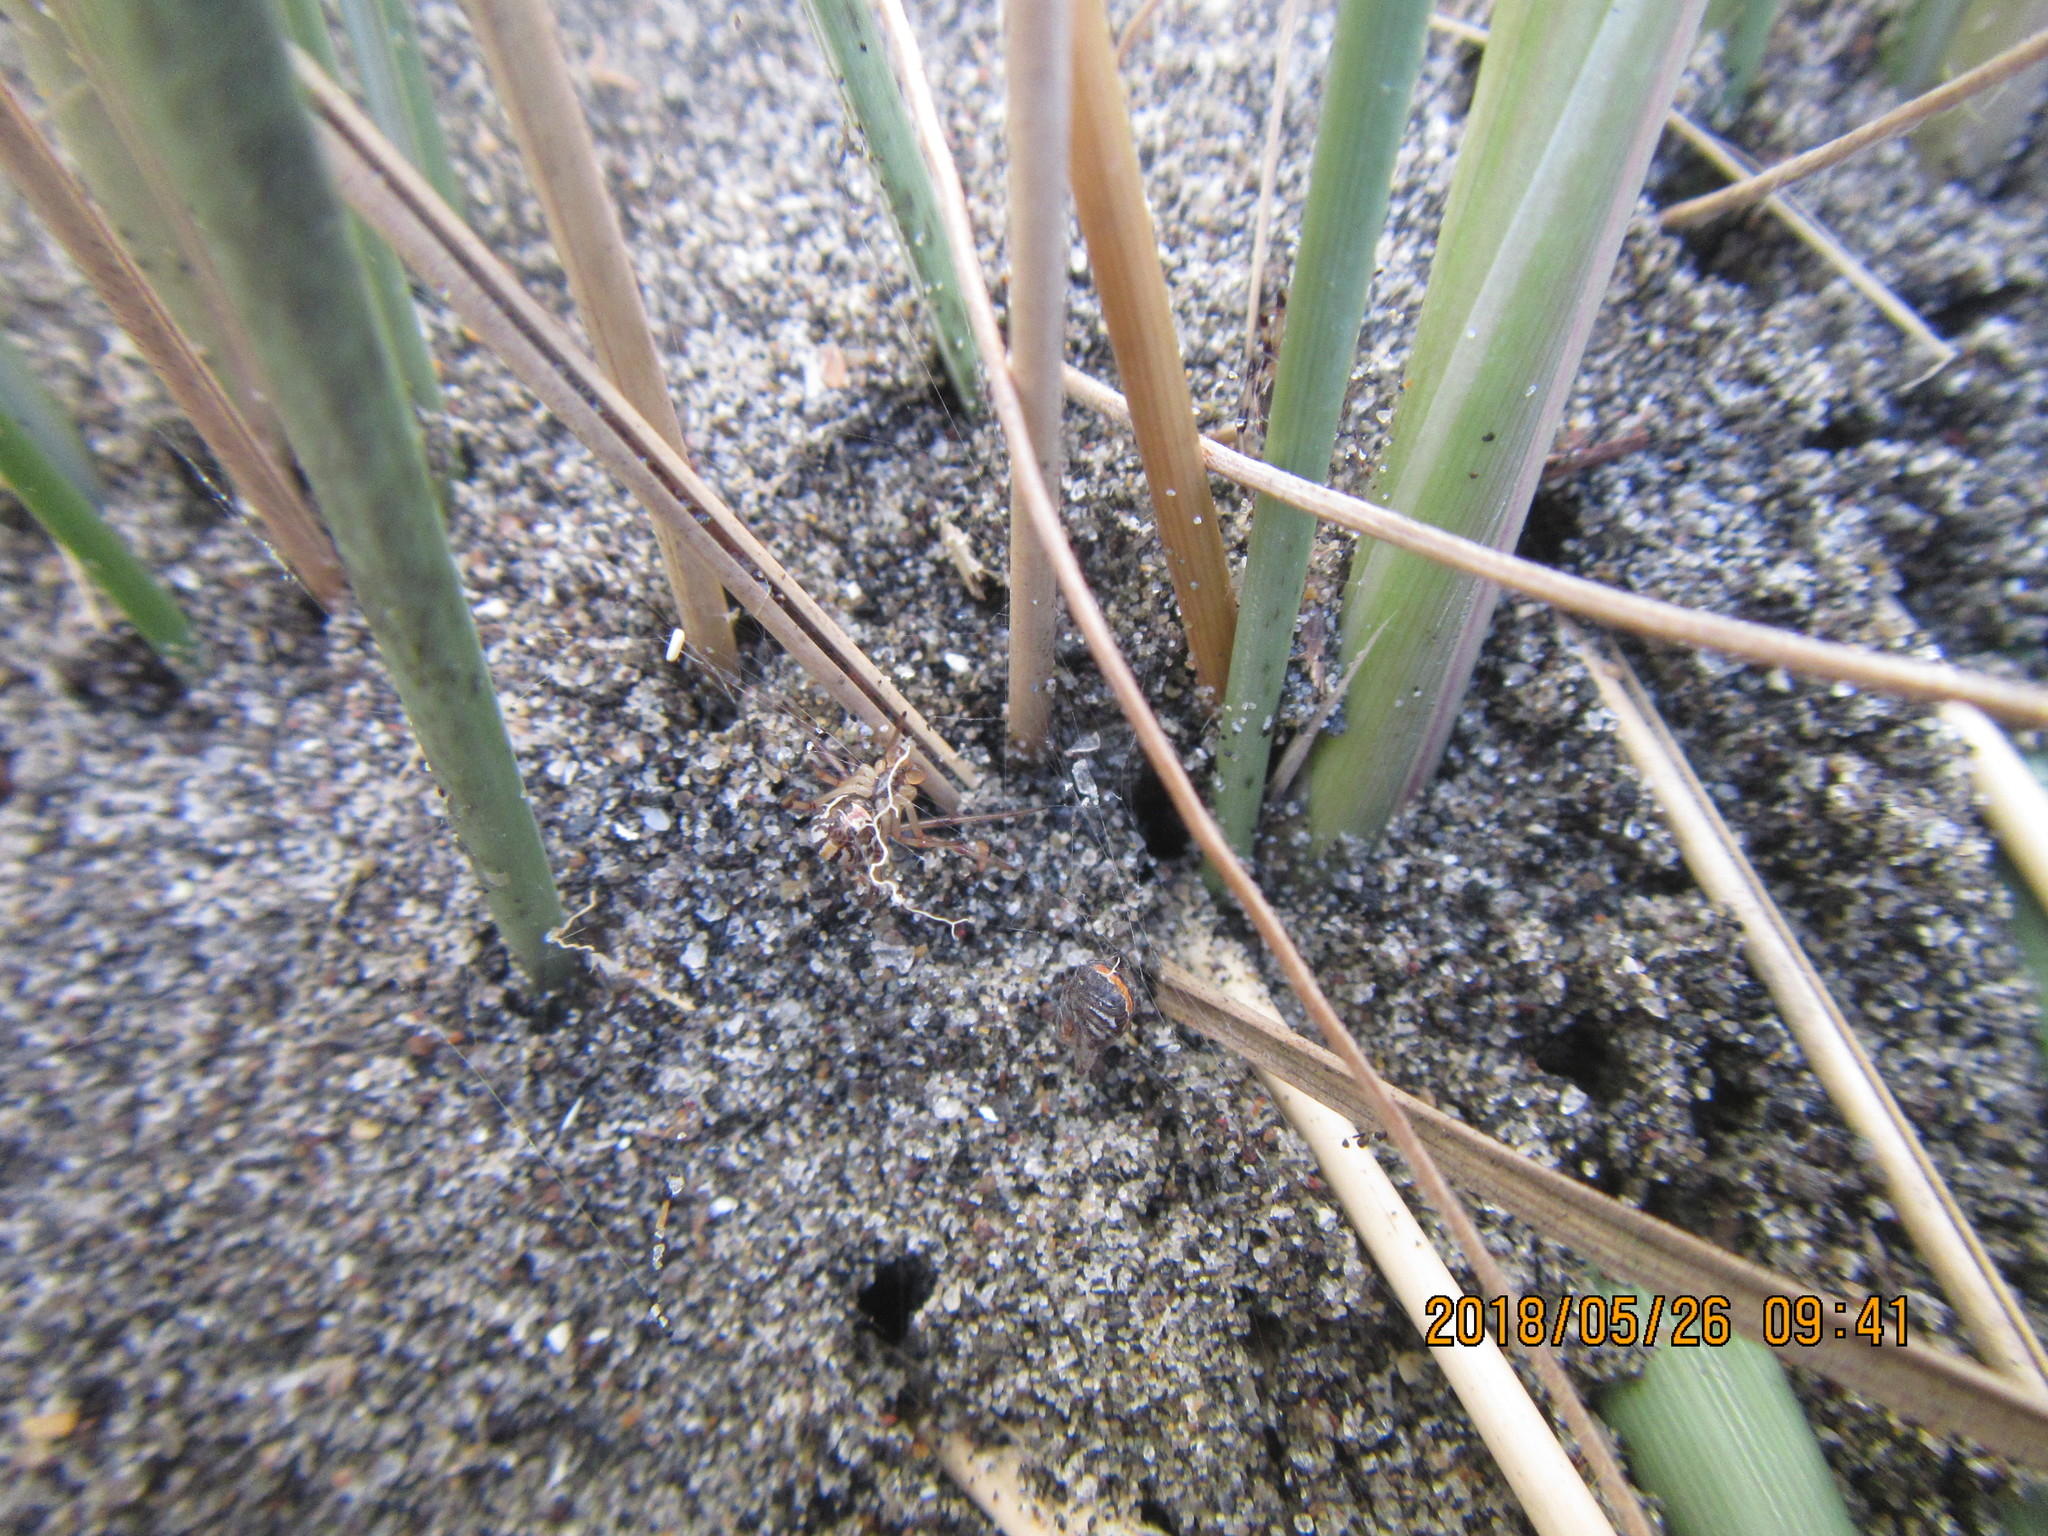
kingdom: Animalia
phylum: Arthropoda
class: Arachnida
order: Araneae
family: Theridiidae
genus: Latrodectus
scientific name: Latrodectus katipo
